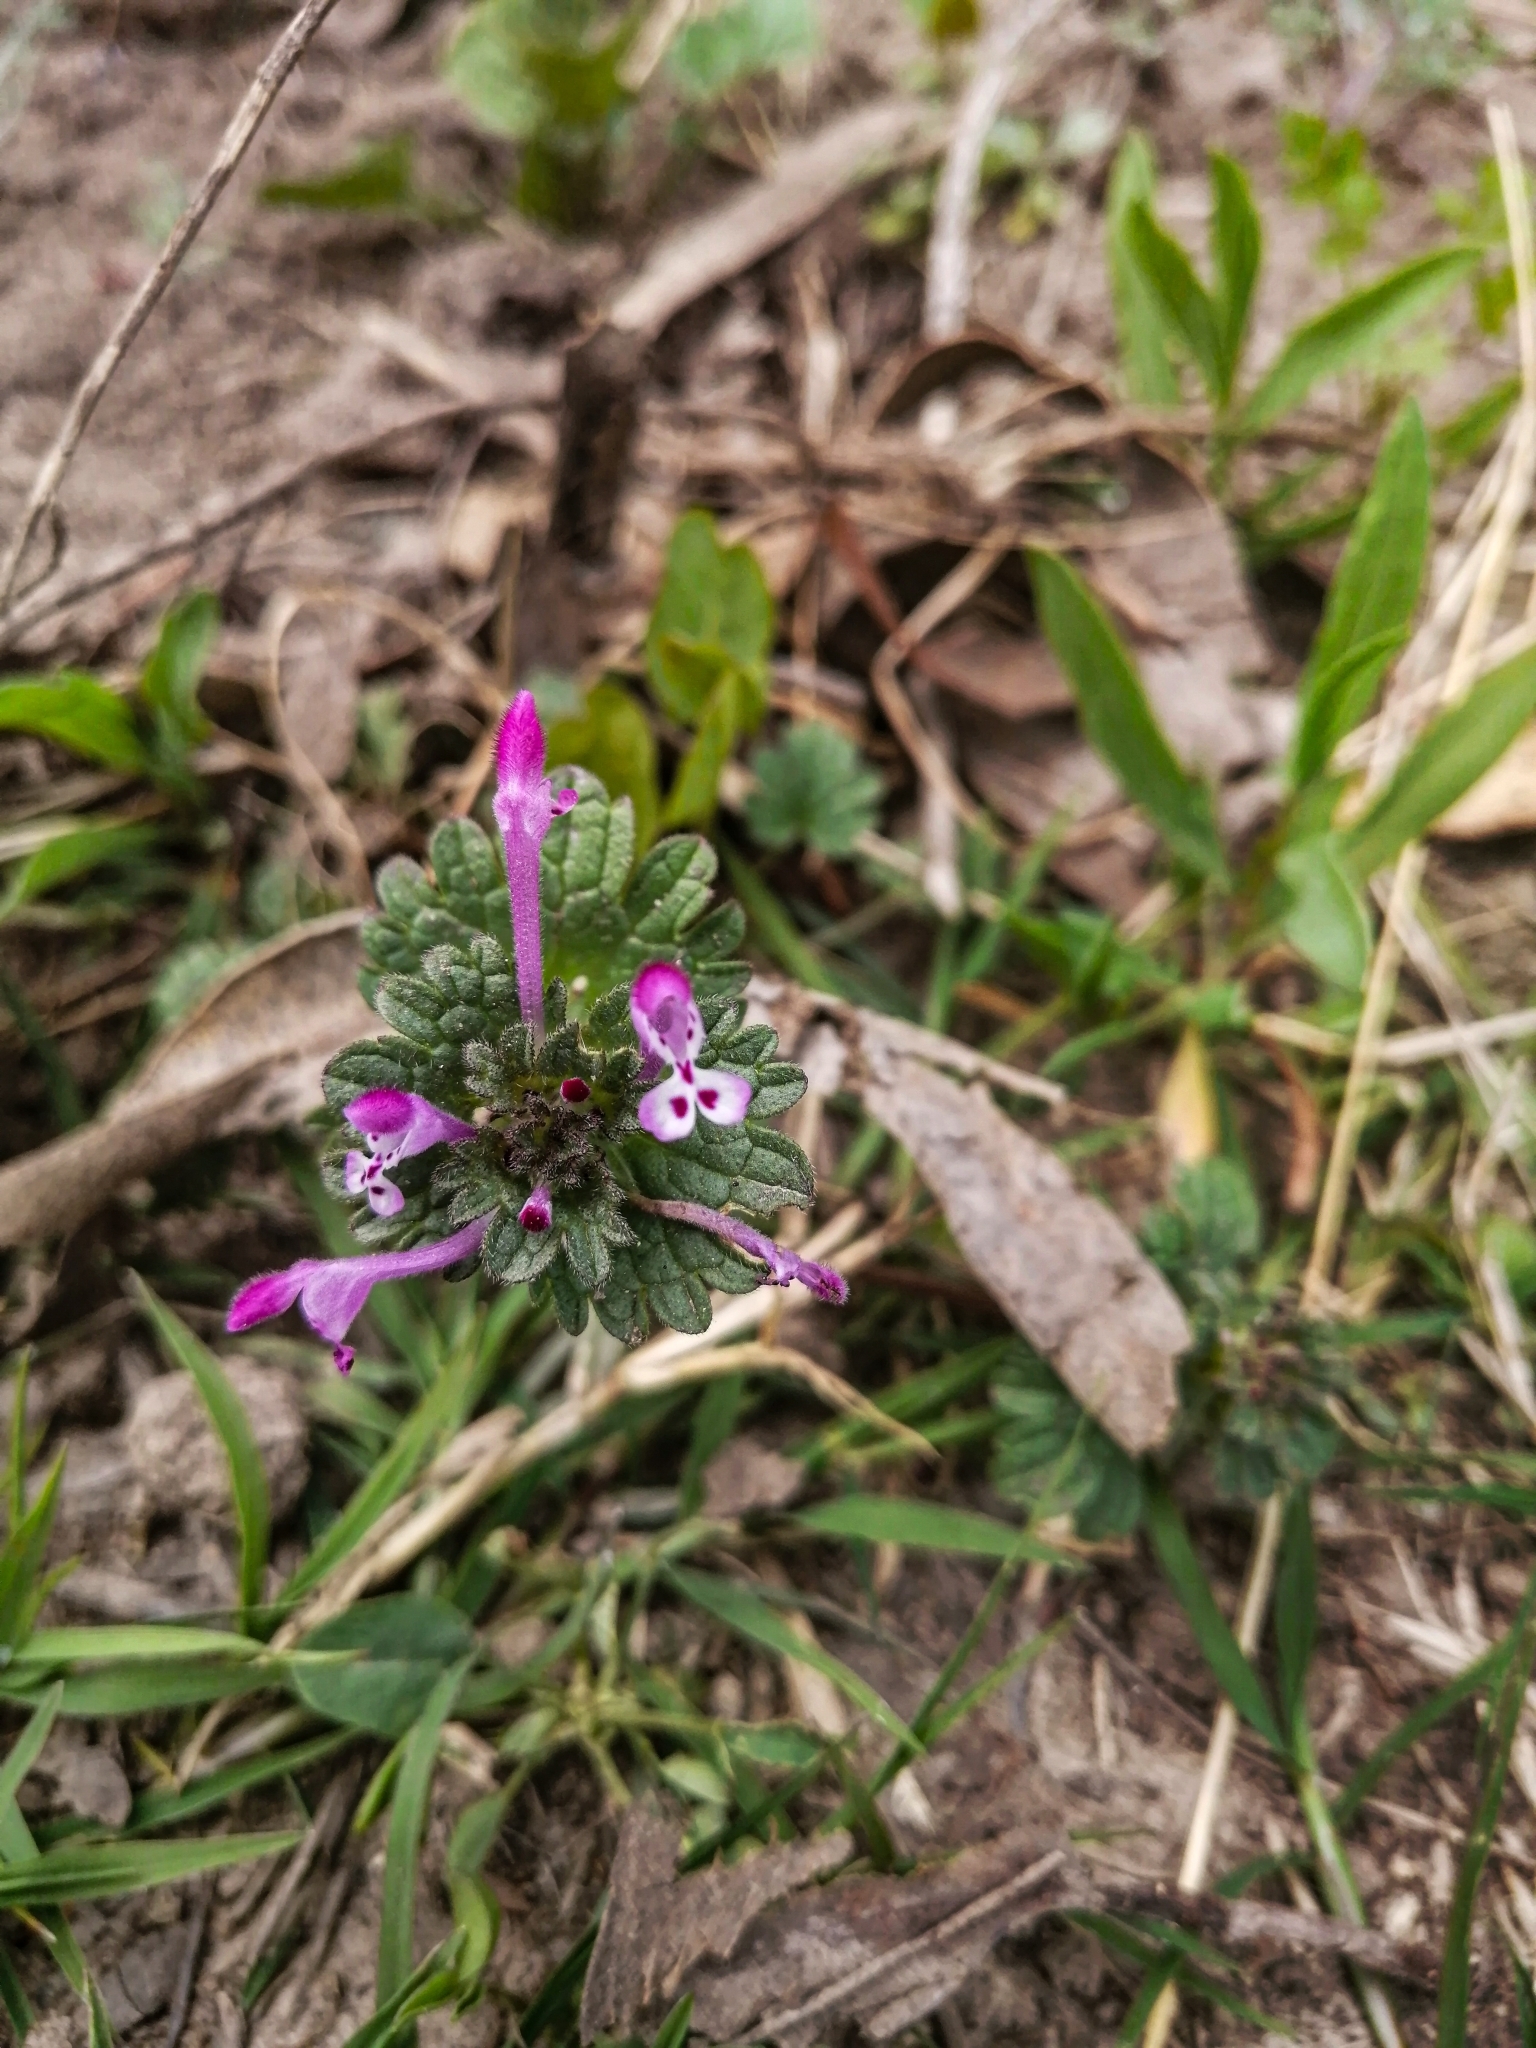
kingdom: Plantae
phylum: Tracheophyta
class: Magnoliopsida
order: Lamiales
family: Lamiaceae
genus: Lamium
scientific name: Lamium amplexicaule
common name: Henbit dead-nettle
